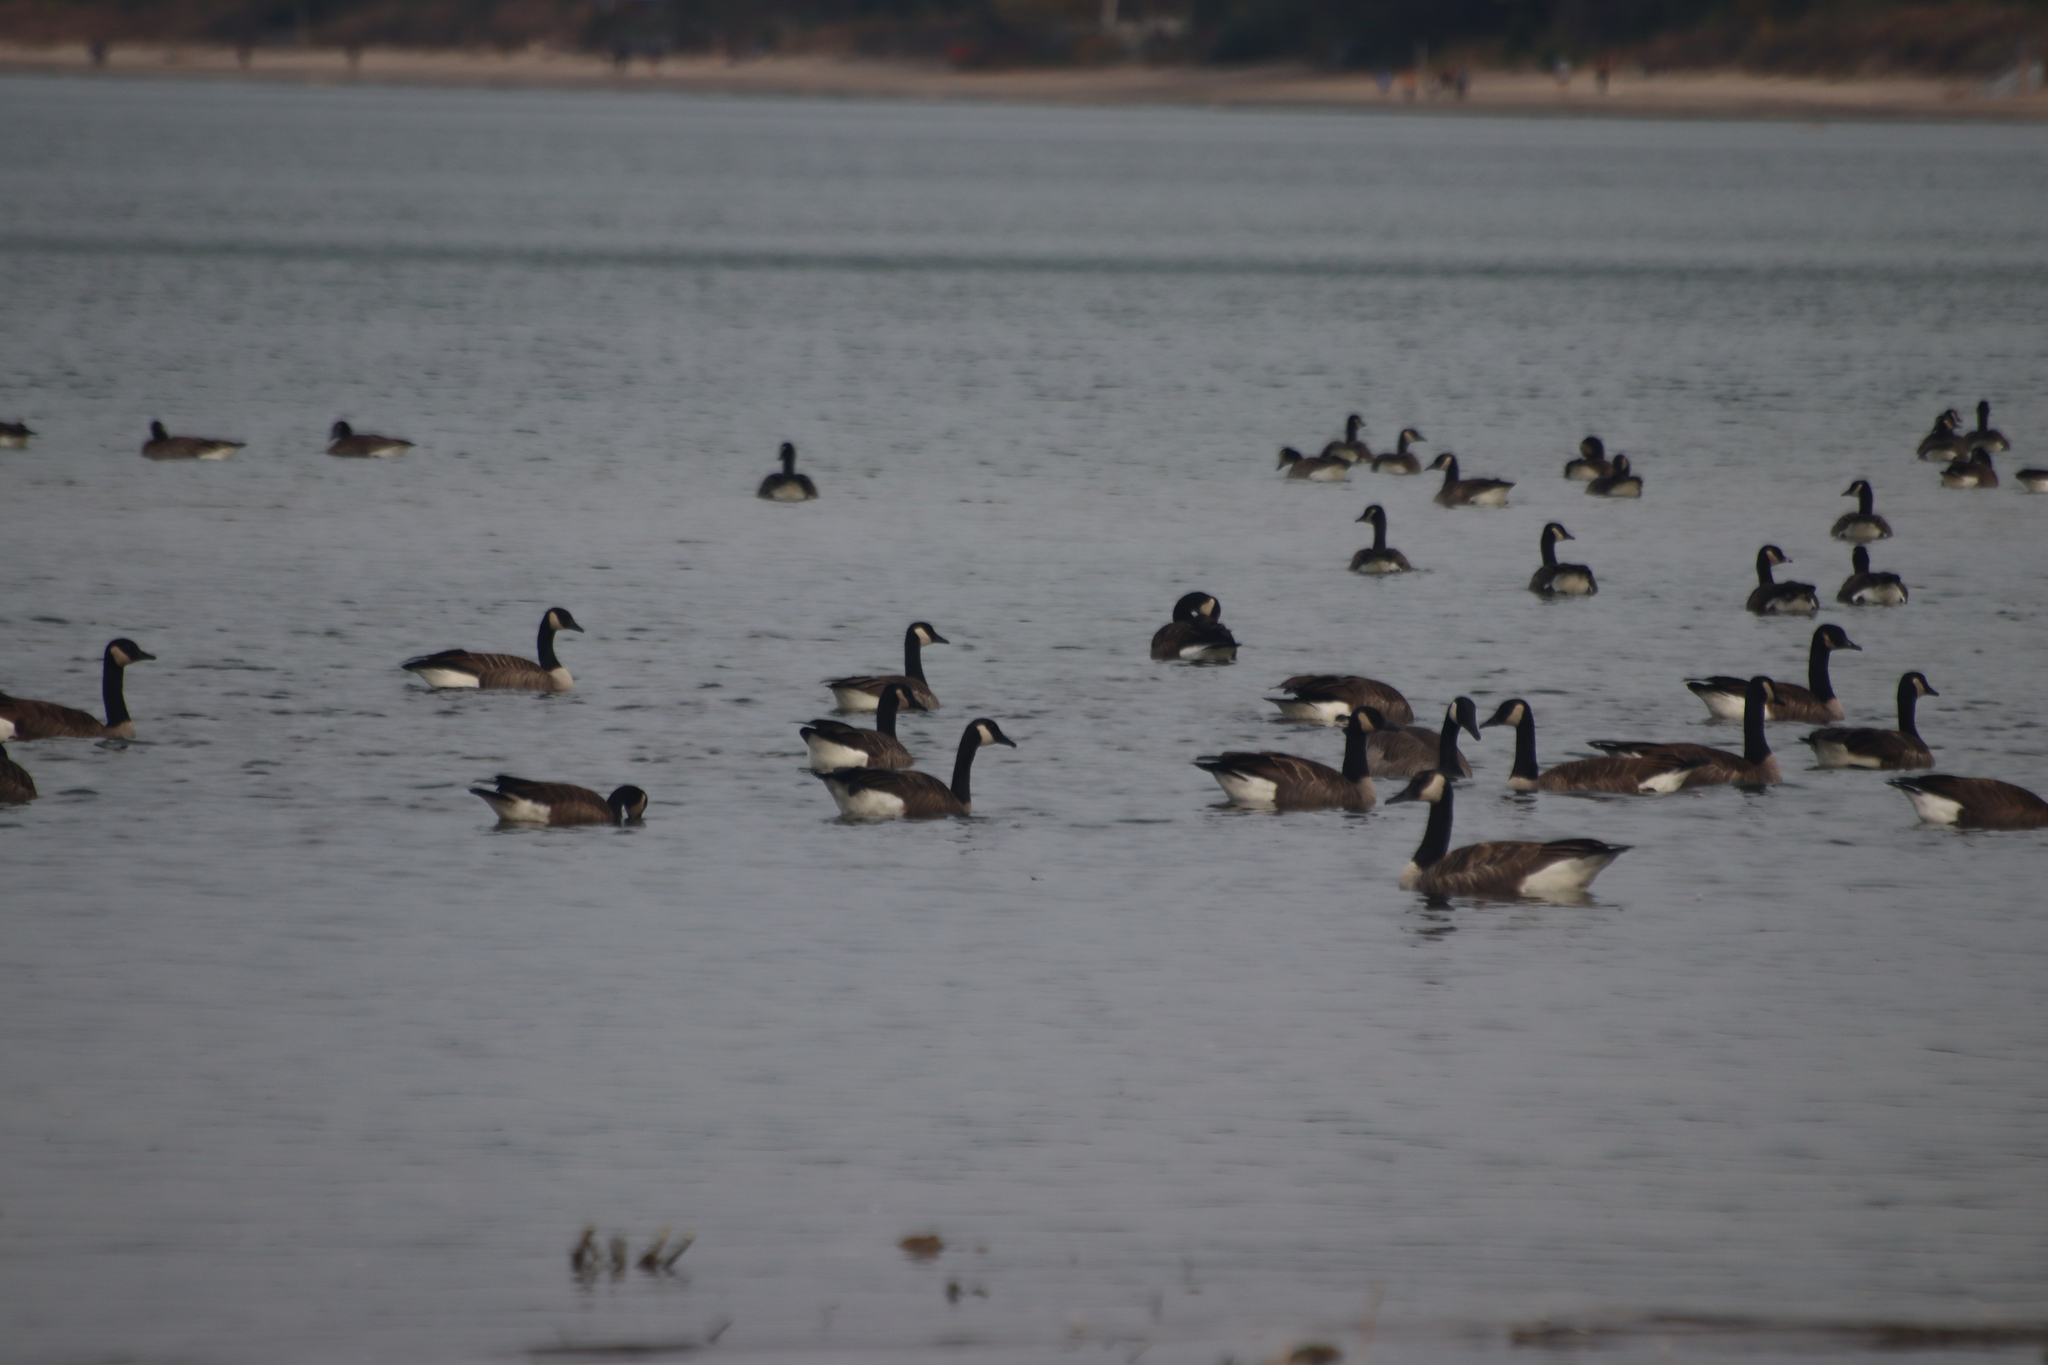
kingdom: Animalia
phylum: Chordata
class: Aves
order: Anseriformes
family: Anatidae
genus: Branta
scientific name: Branta canadensis
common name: Canada goose
